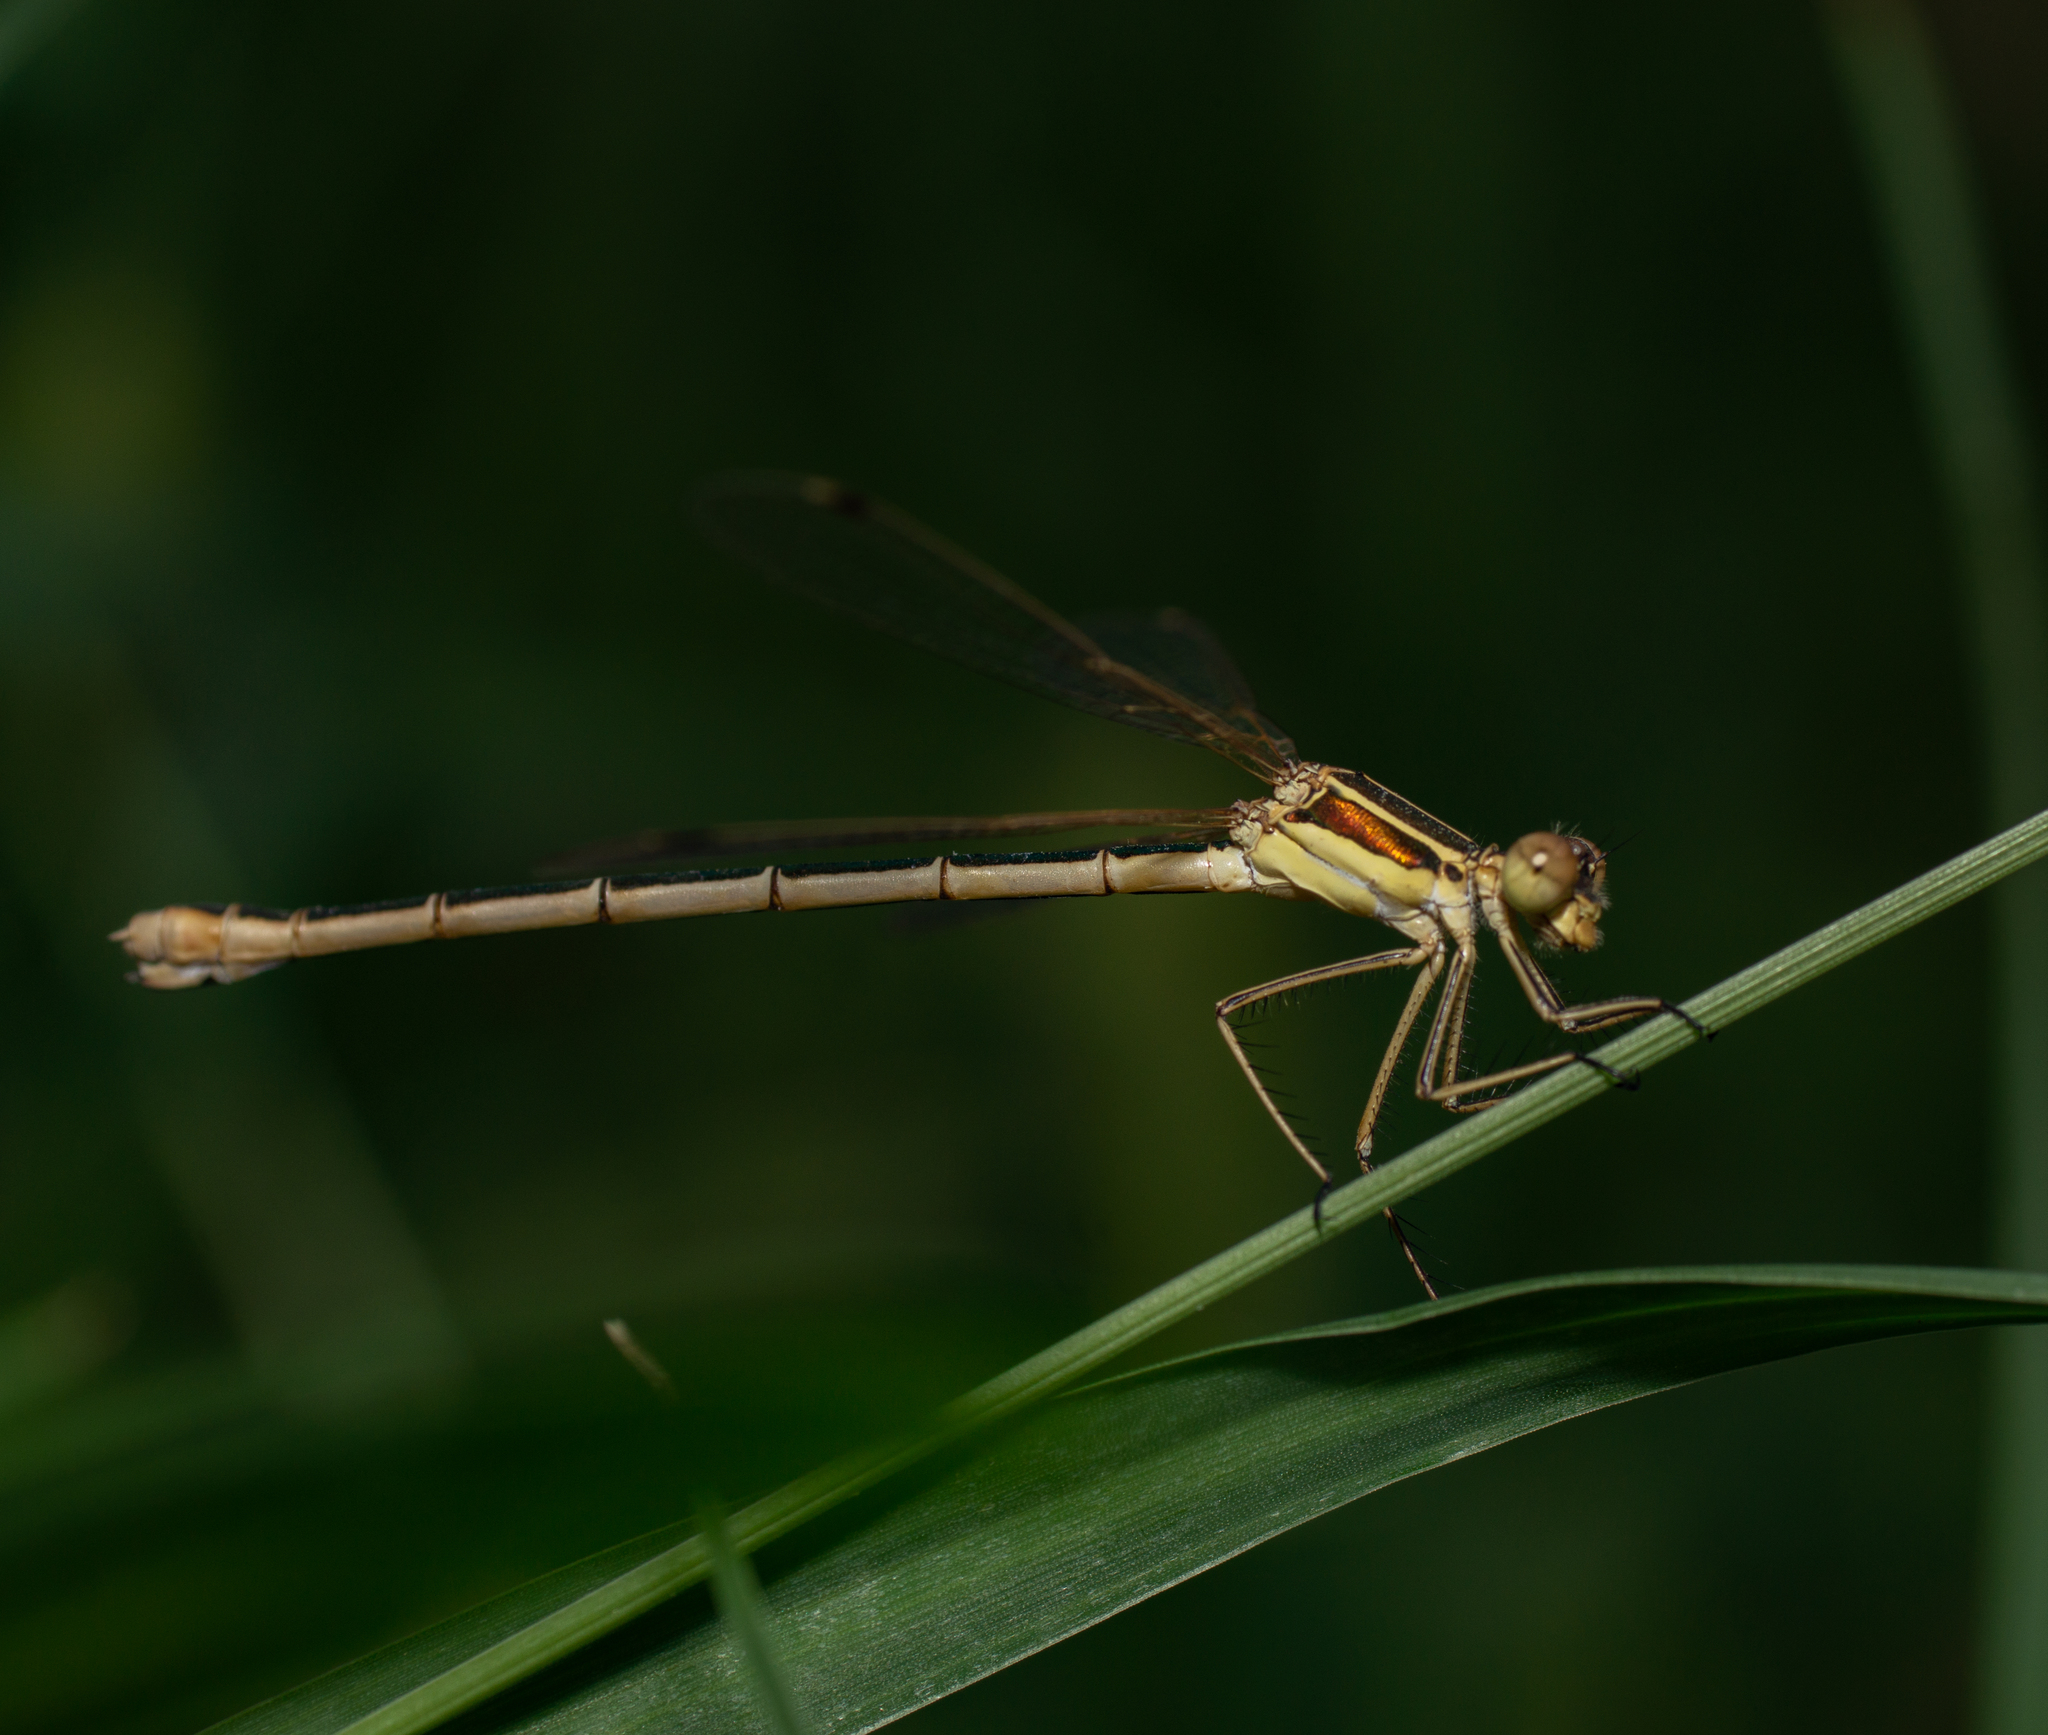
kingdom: Animalia
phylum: Arthropoda
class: Insecta
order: Odonata
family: Lestidae
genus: Lestes
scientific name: Lestes barbarus
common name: Migrant spreadwing
